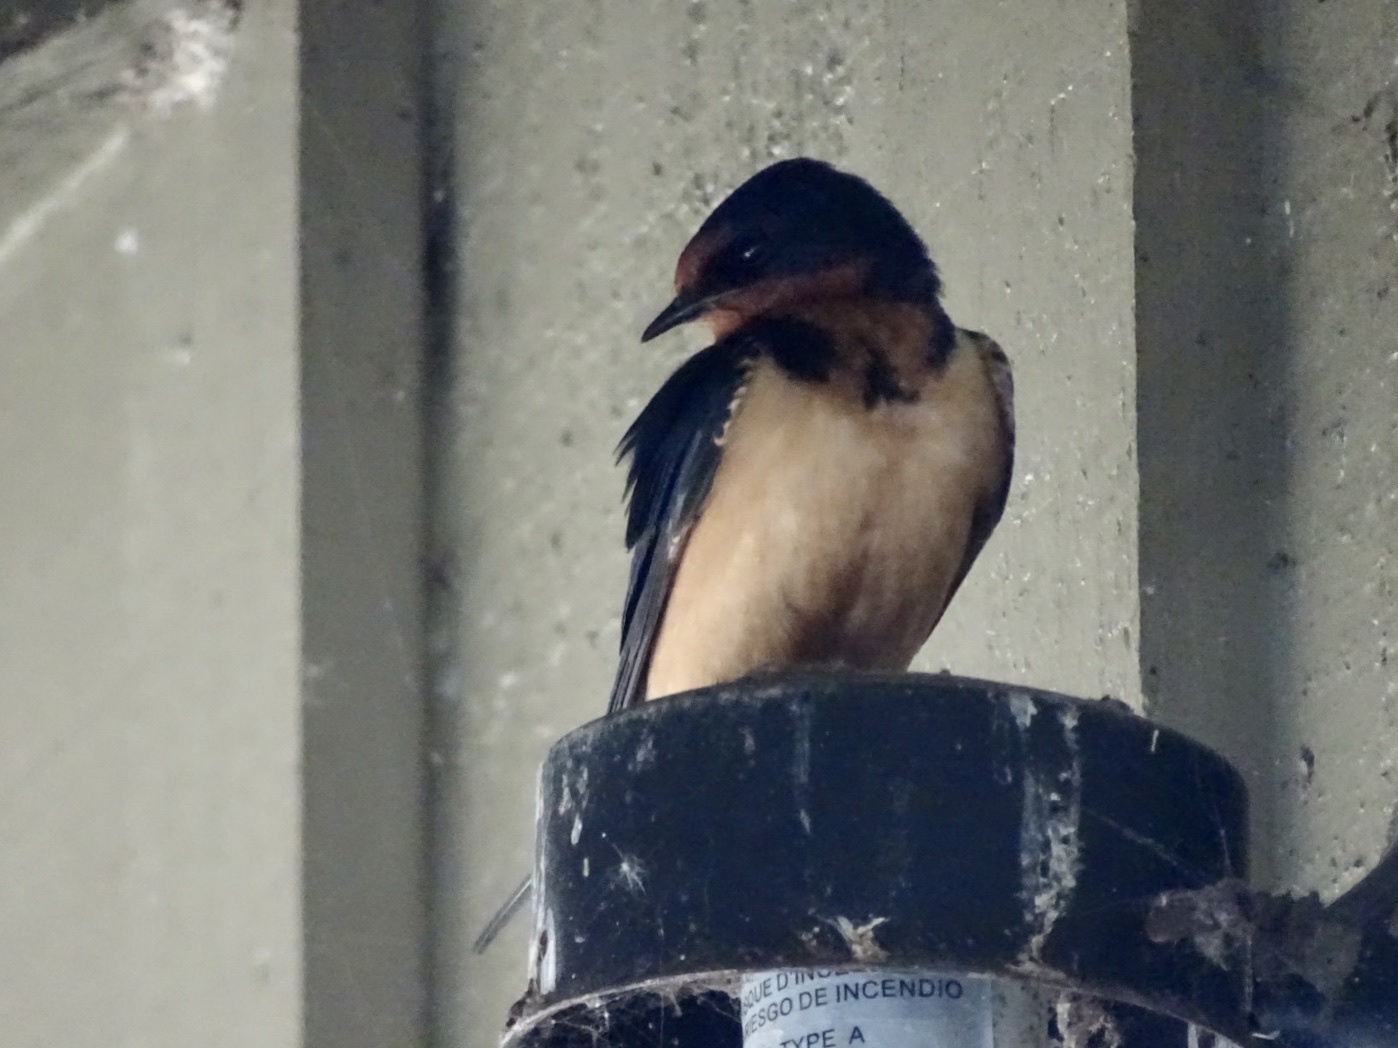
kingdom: Animalia
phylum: Chordata
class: Aves
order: Passeriformes
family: Hirundinidae
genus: Hirundo
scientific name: Hirundo rustica
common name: Barn swallow
